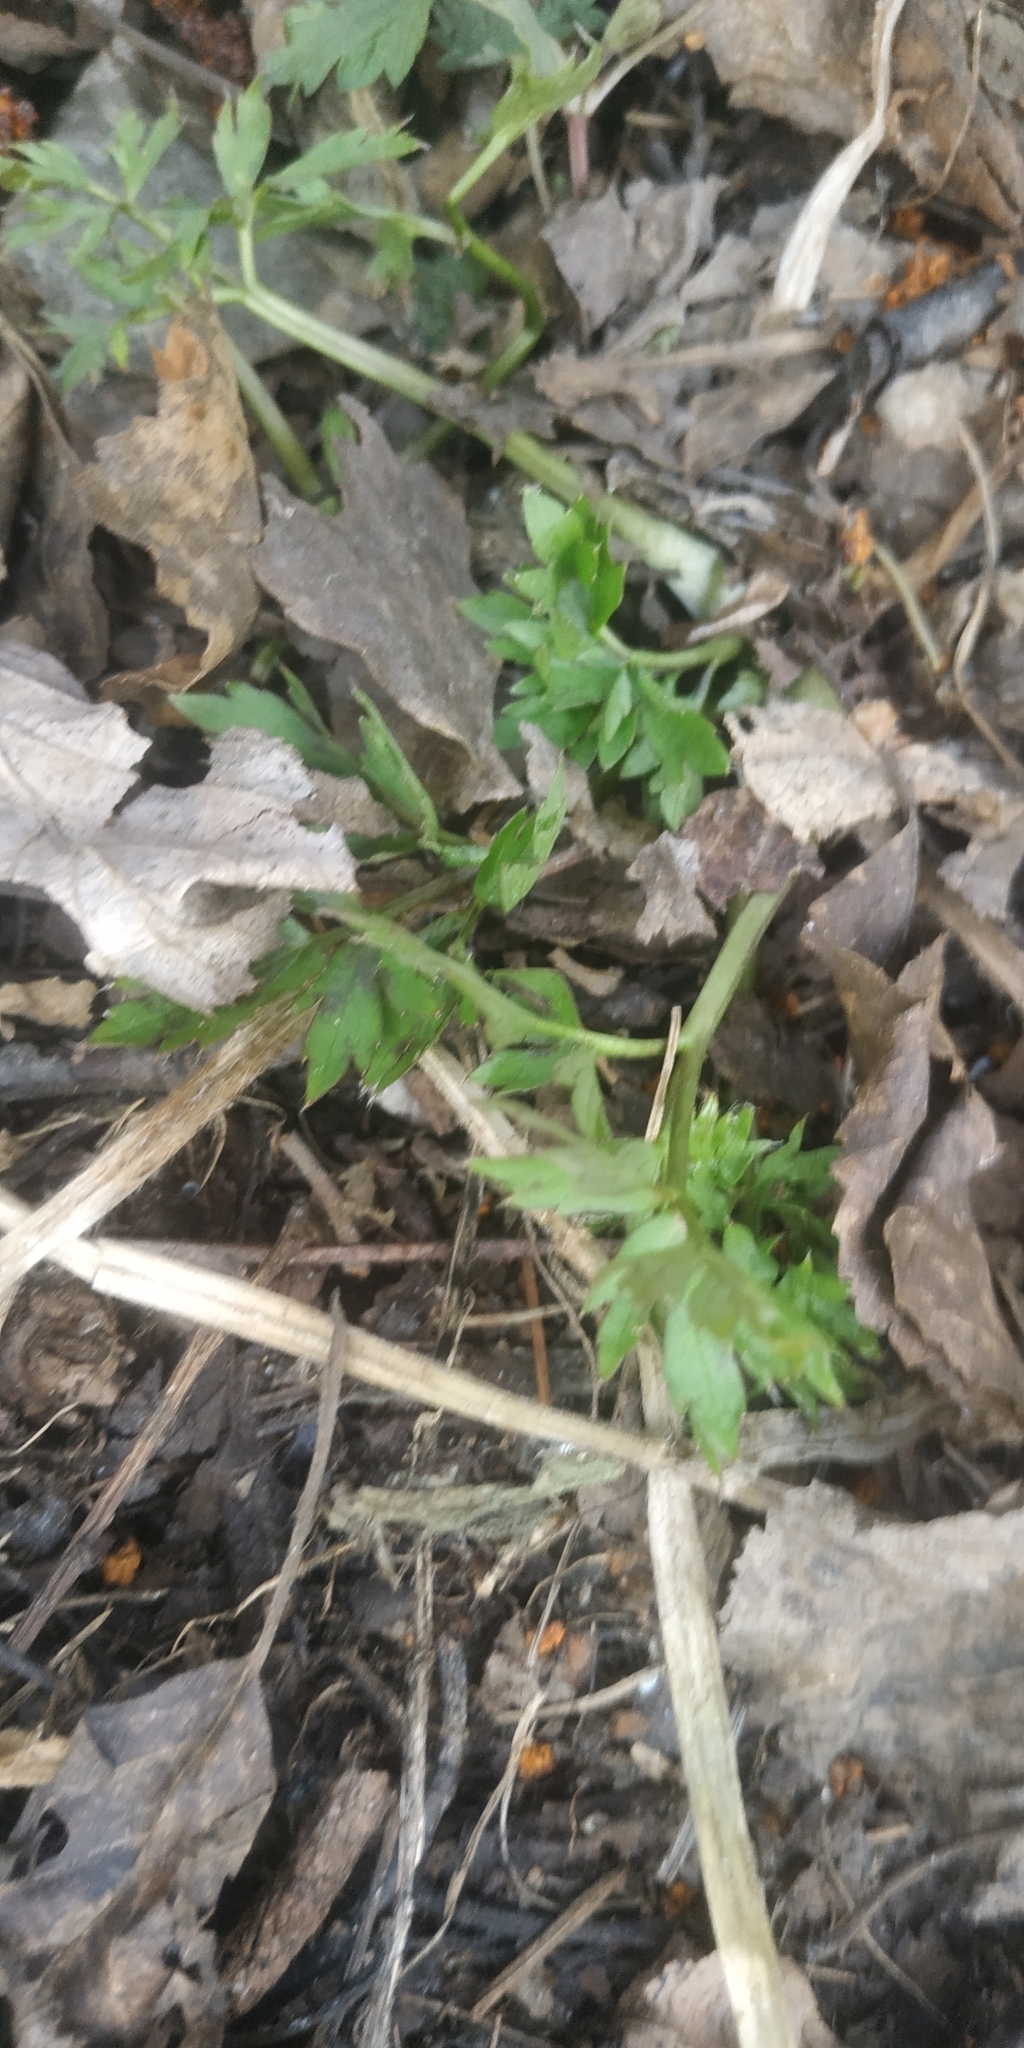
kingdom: Plantae
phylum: Tracheophyta
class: Magnoliopsida
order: Ranunculales
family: Ranunculaceae
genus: Ranunculus
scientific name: Ranunculus repens
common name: Creeping buttercup
